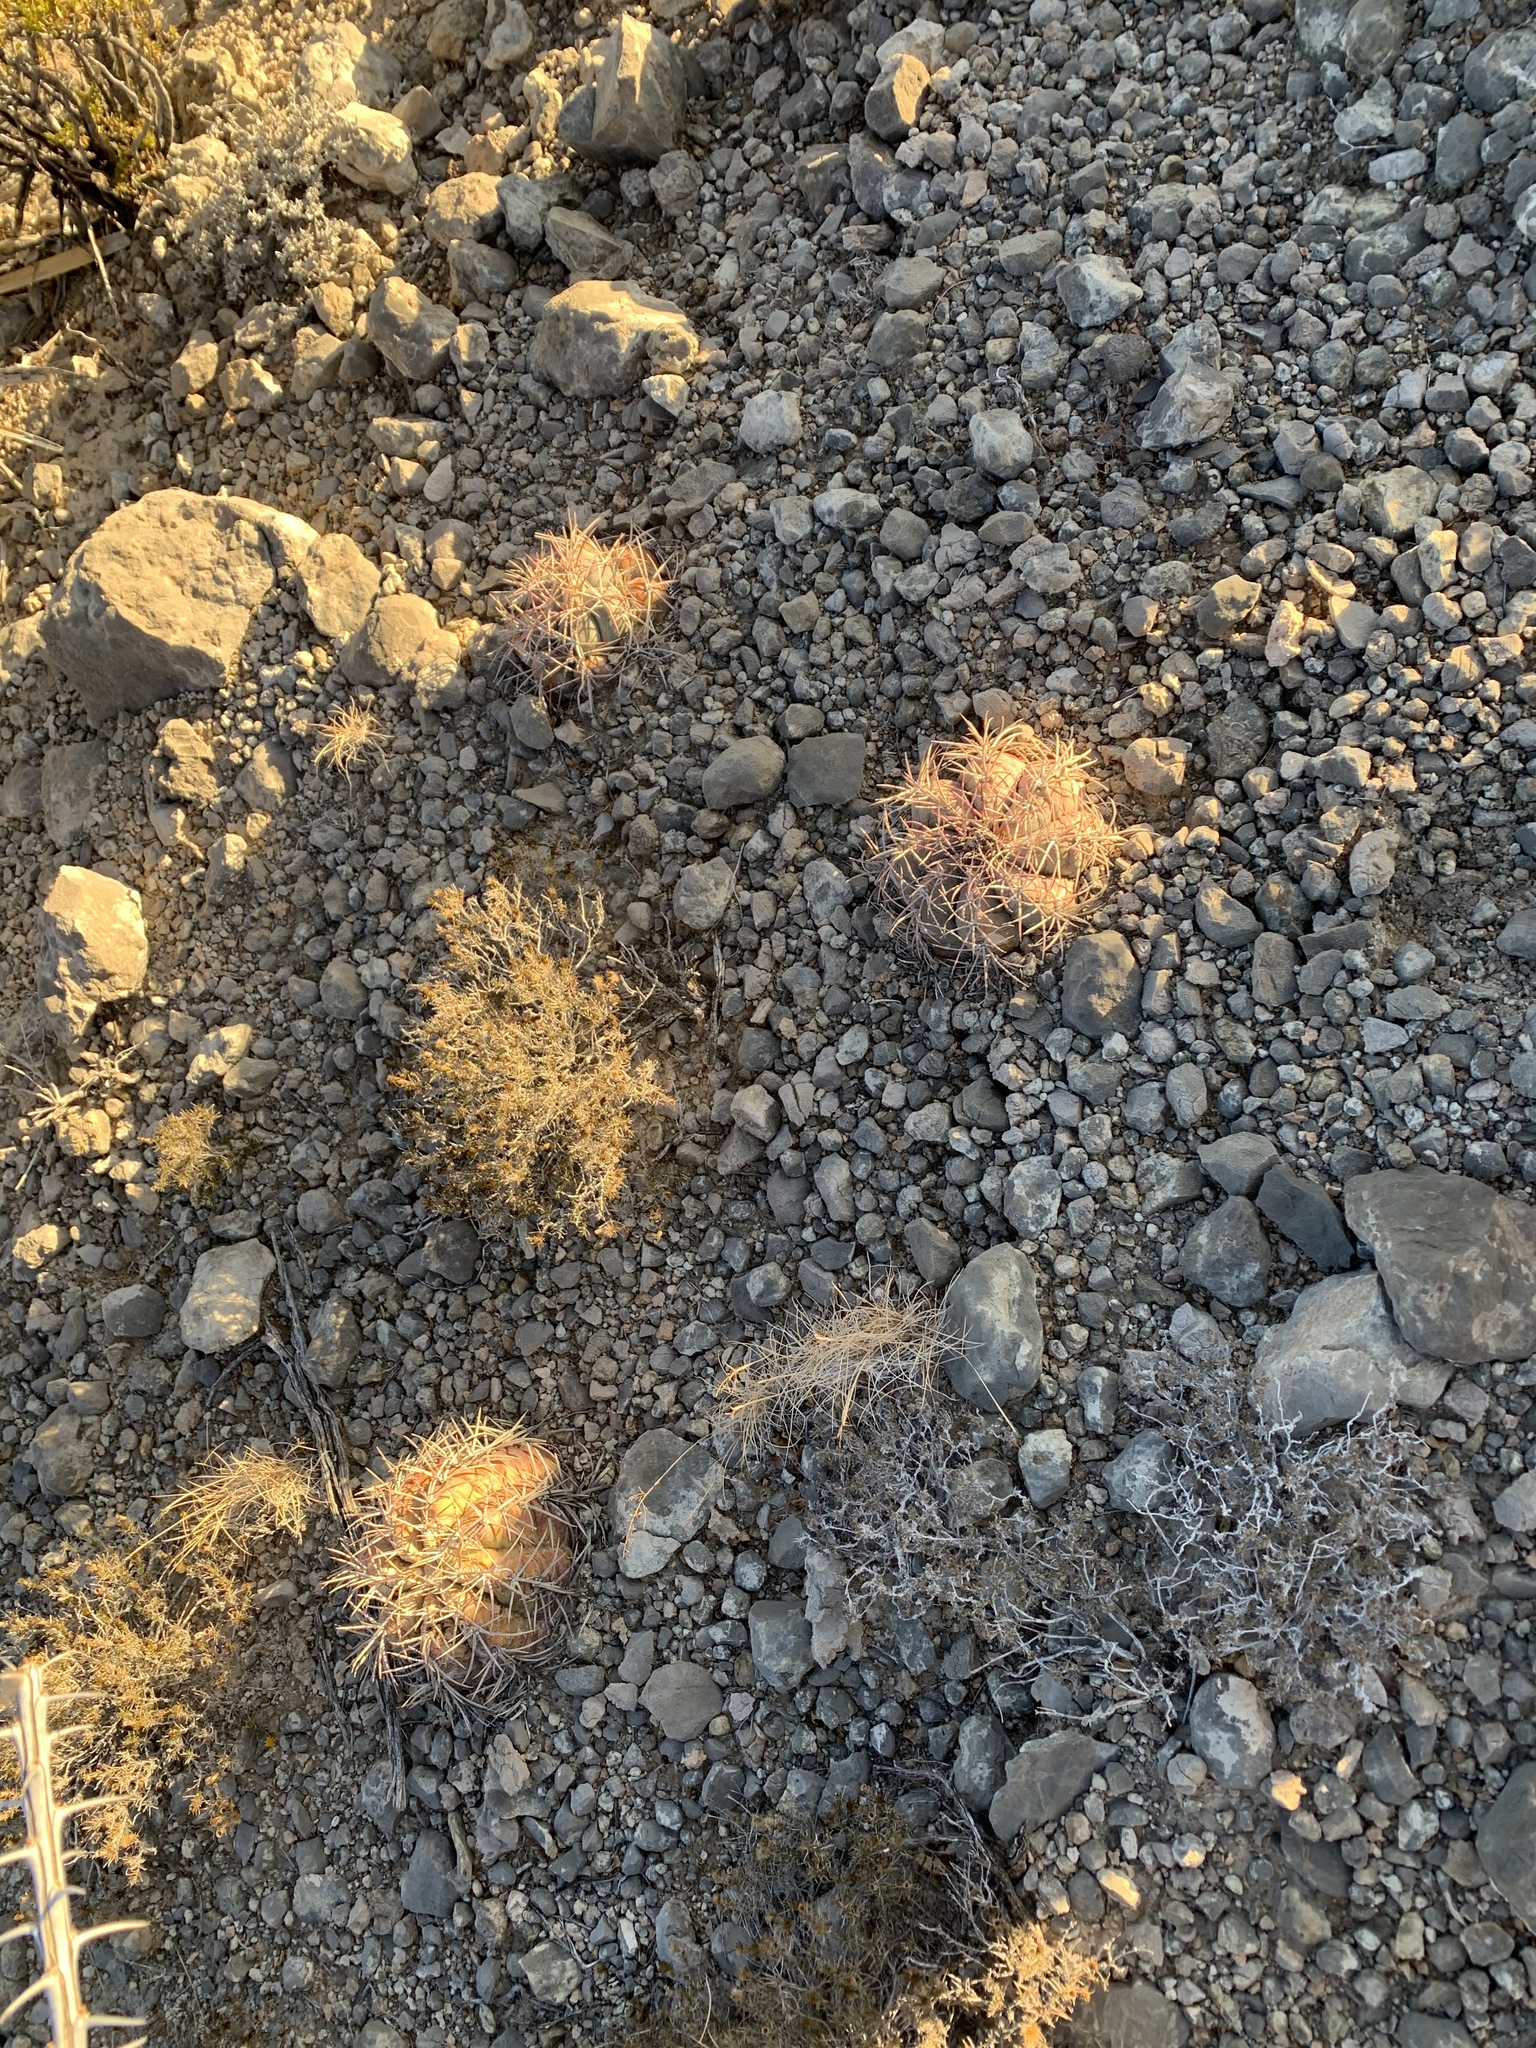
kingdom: Plantae
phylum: Tracheophyta
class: Magnoliopsida
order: Caryophyllales
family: Cactaceae
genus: Echinocactus
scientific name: Echinocactus horizonthalonius
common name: Devilshead
